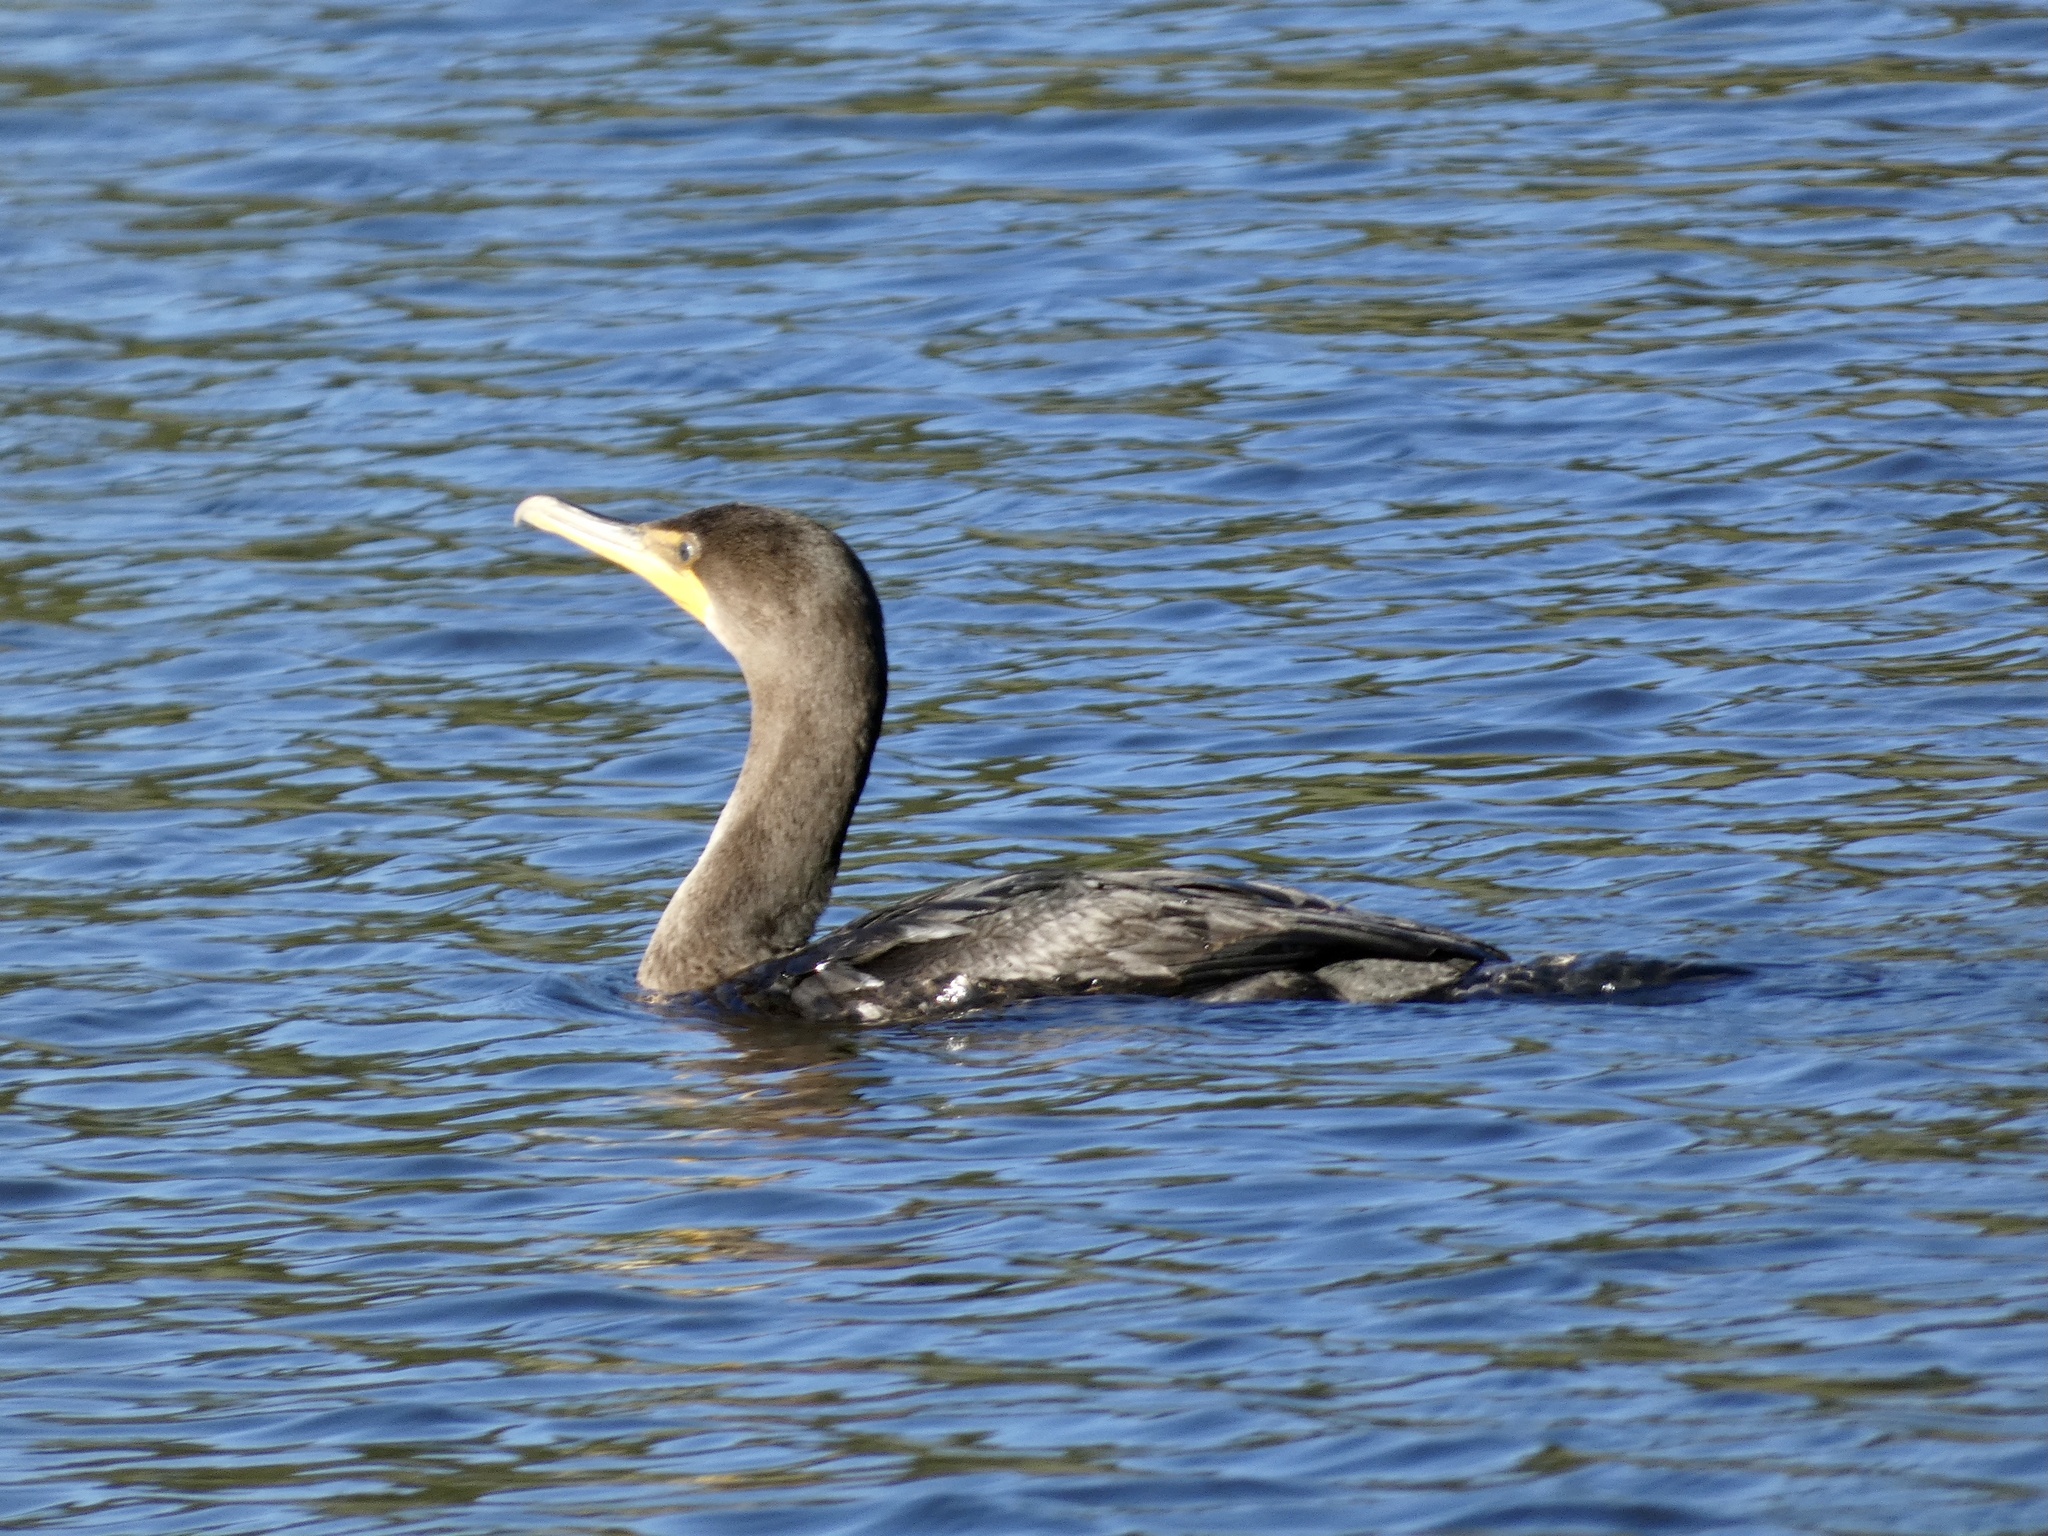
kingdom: Animalia
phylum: Chordata
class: Aves
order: Suliformes
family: Phalacrocoracidae
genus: Phalacrocorax
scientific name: Phalacrocorax auritus
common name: Double-crested cormorant
